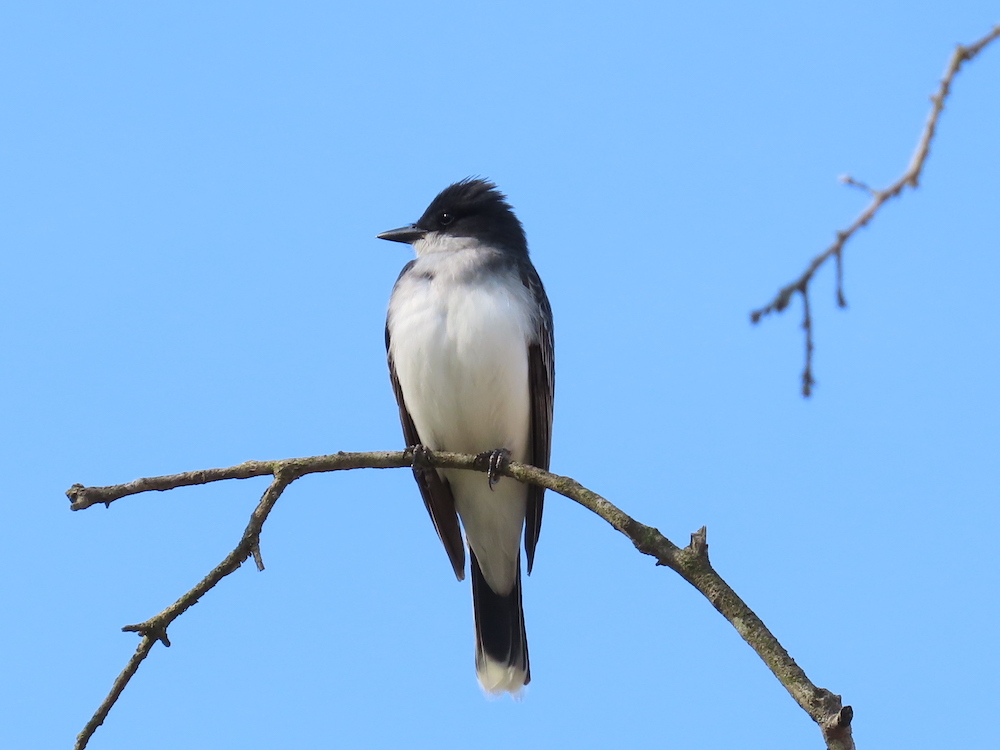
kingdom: Animalia
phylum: Chordata
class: Aves
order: Passeriformes
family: Tyrannidae
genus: Tyrannus
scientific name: Tyrannus tyrannus
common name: Eastern kingbird
